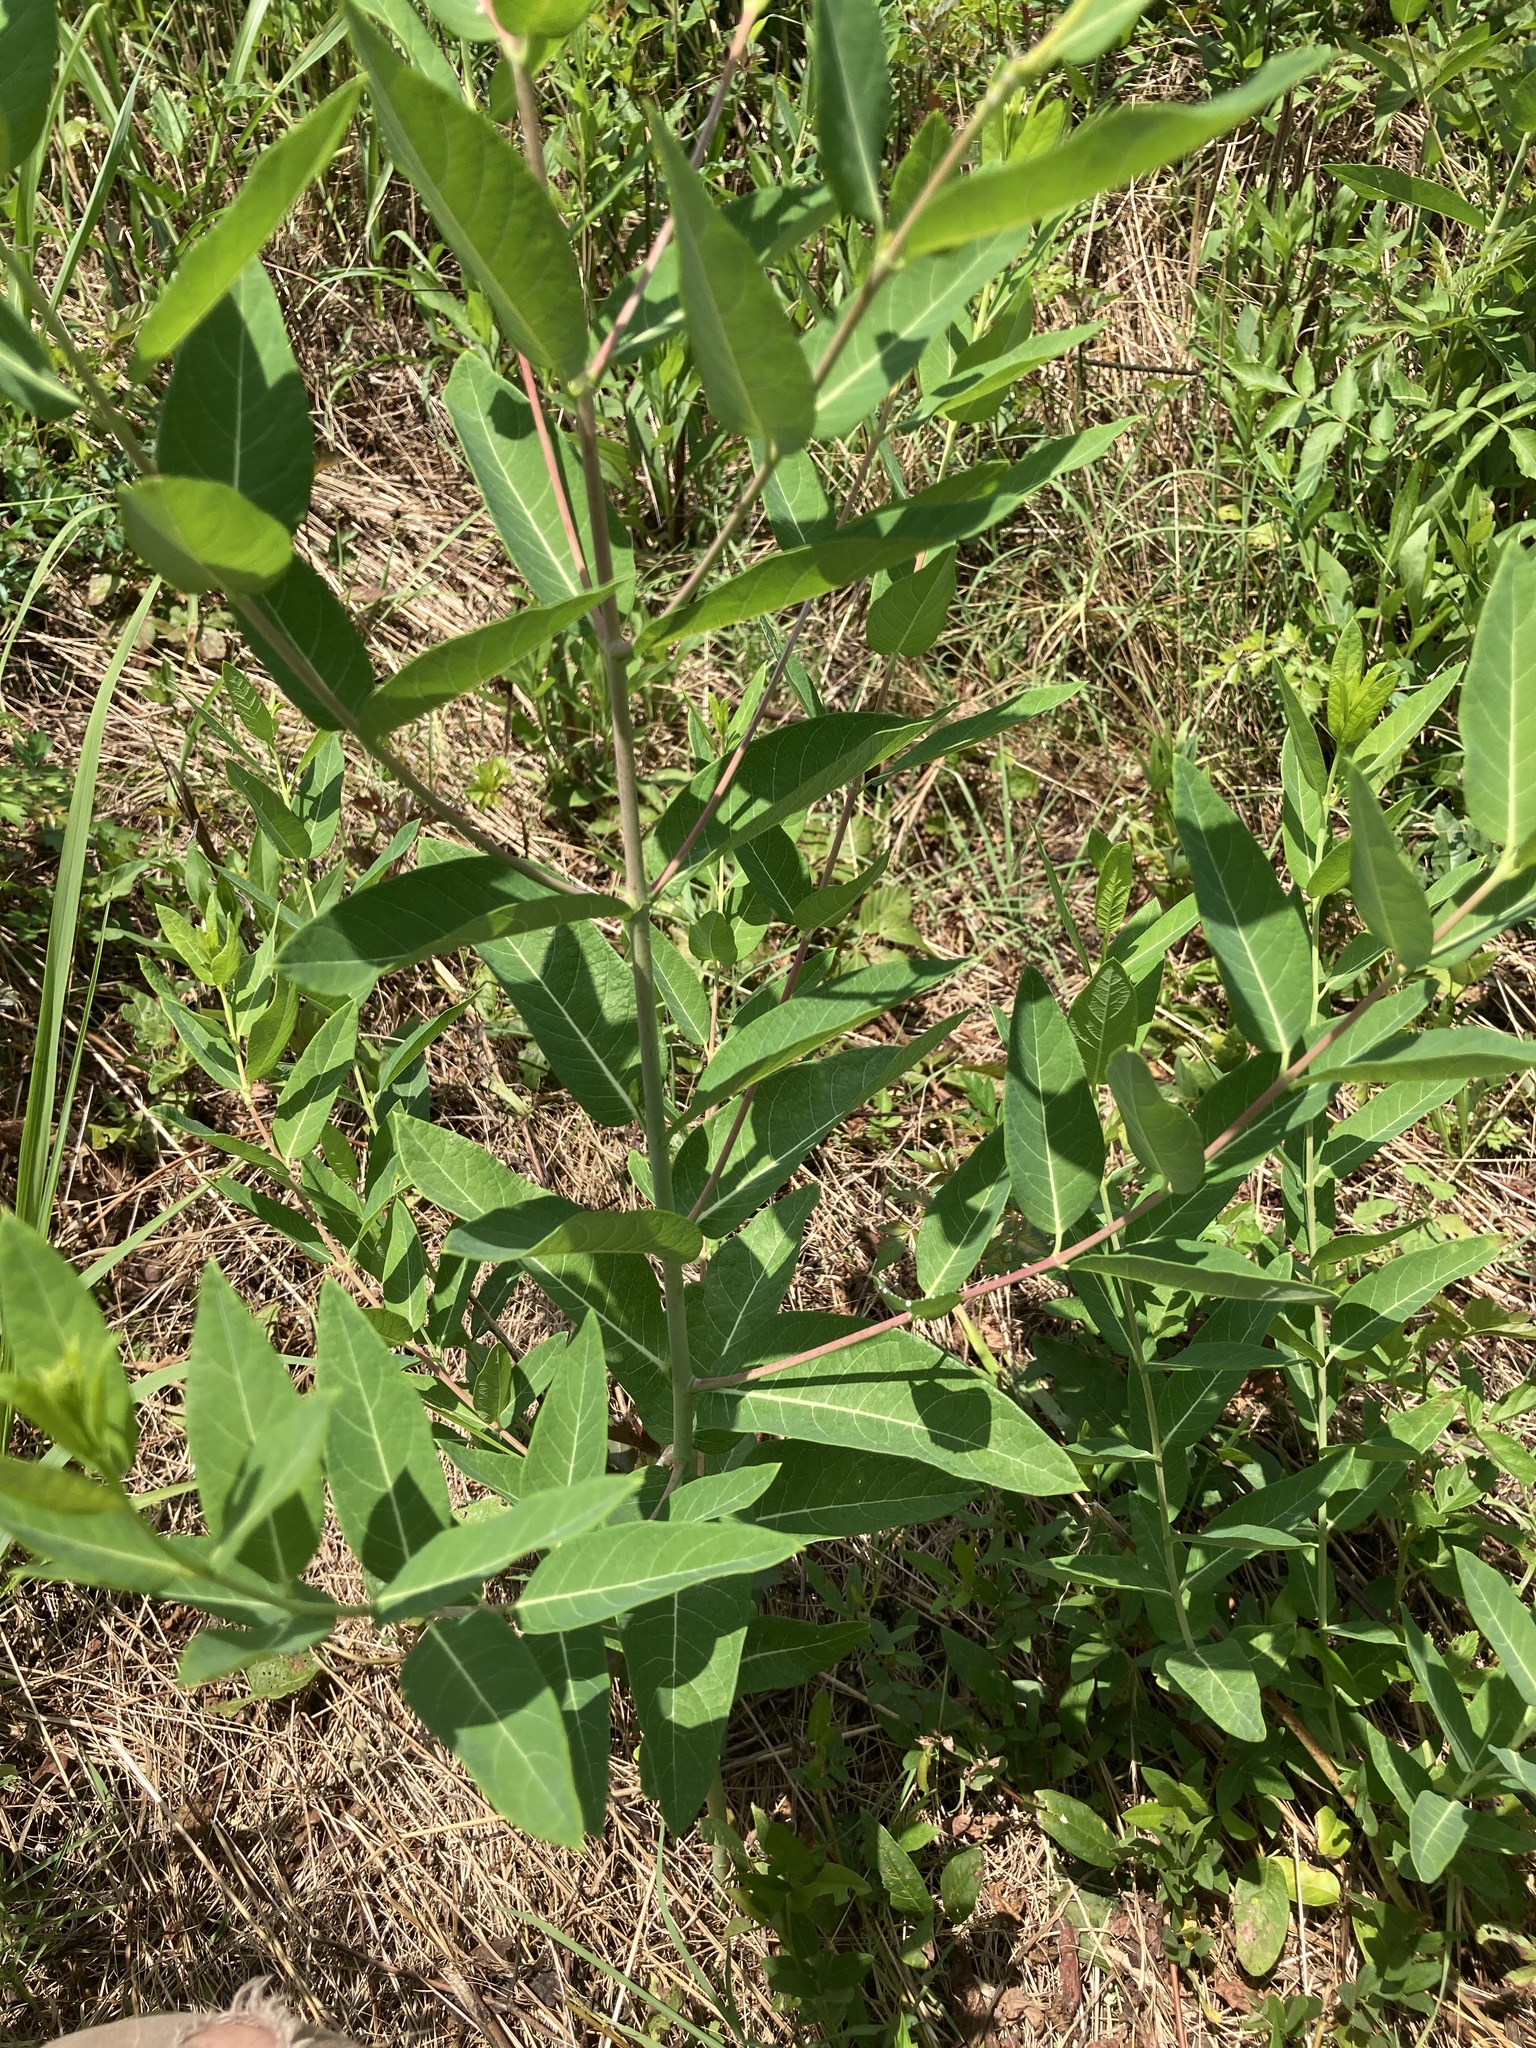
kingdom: Plantae
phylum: Tracheophyta
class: Magnoliopsida
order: Gentianales
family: Apocynaceae
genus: Apocynum
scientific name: Apocynum cannabinum
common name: Hemp dogbane
